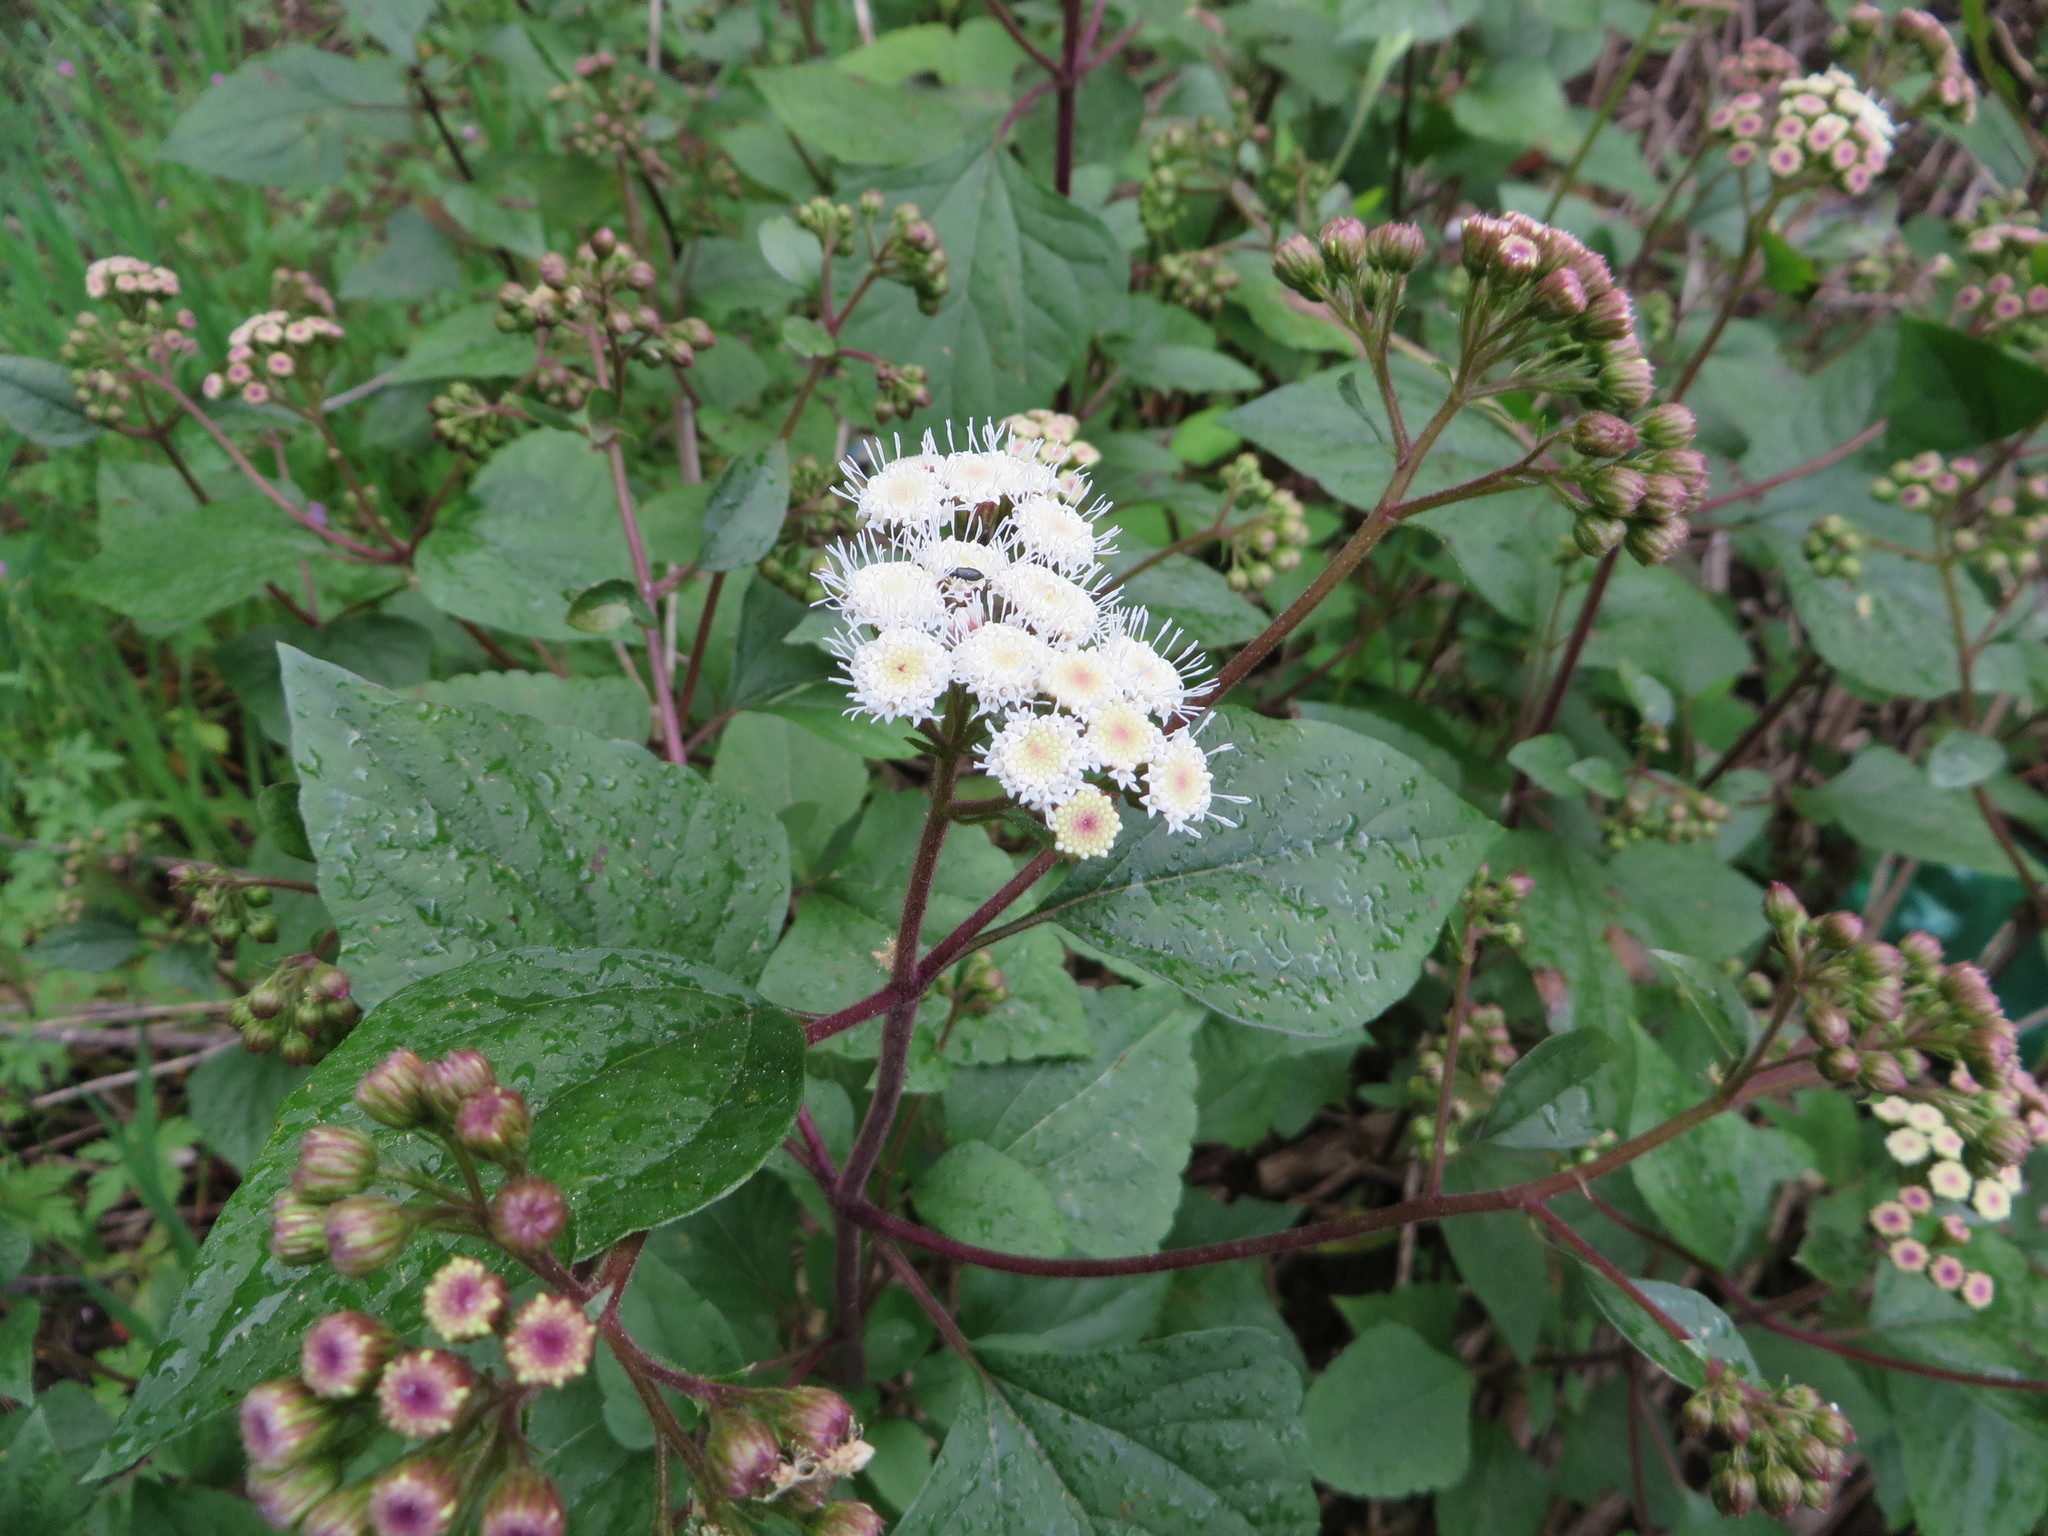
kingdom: Plantae
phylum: Tracheophyta
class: Magnoliopsida
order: Asterales
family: Asteraceae
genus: Ageratina
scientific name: Ageratina adenophora
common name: Sticky snakeroot
